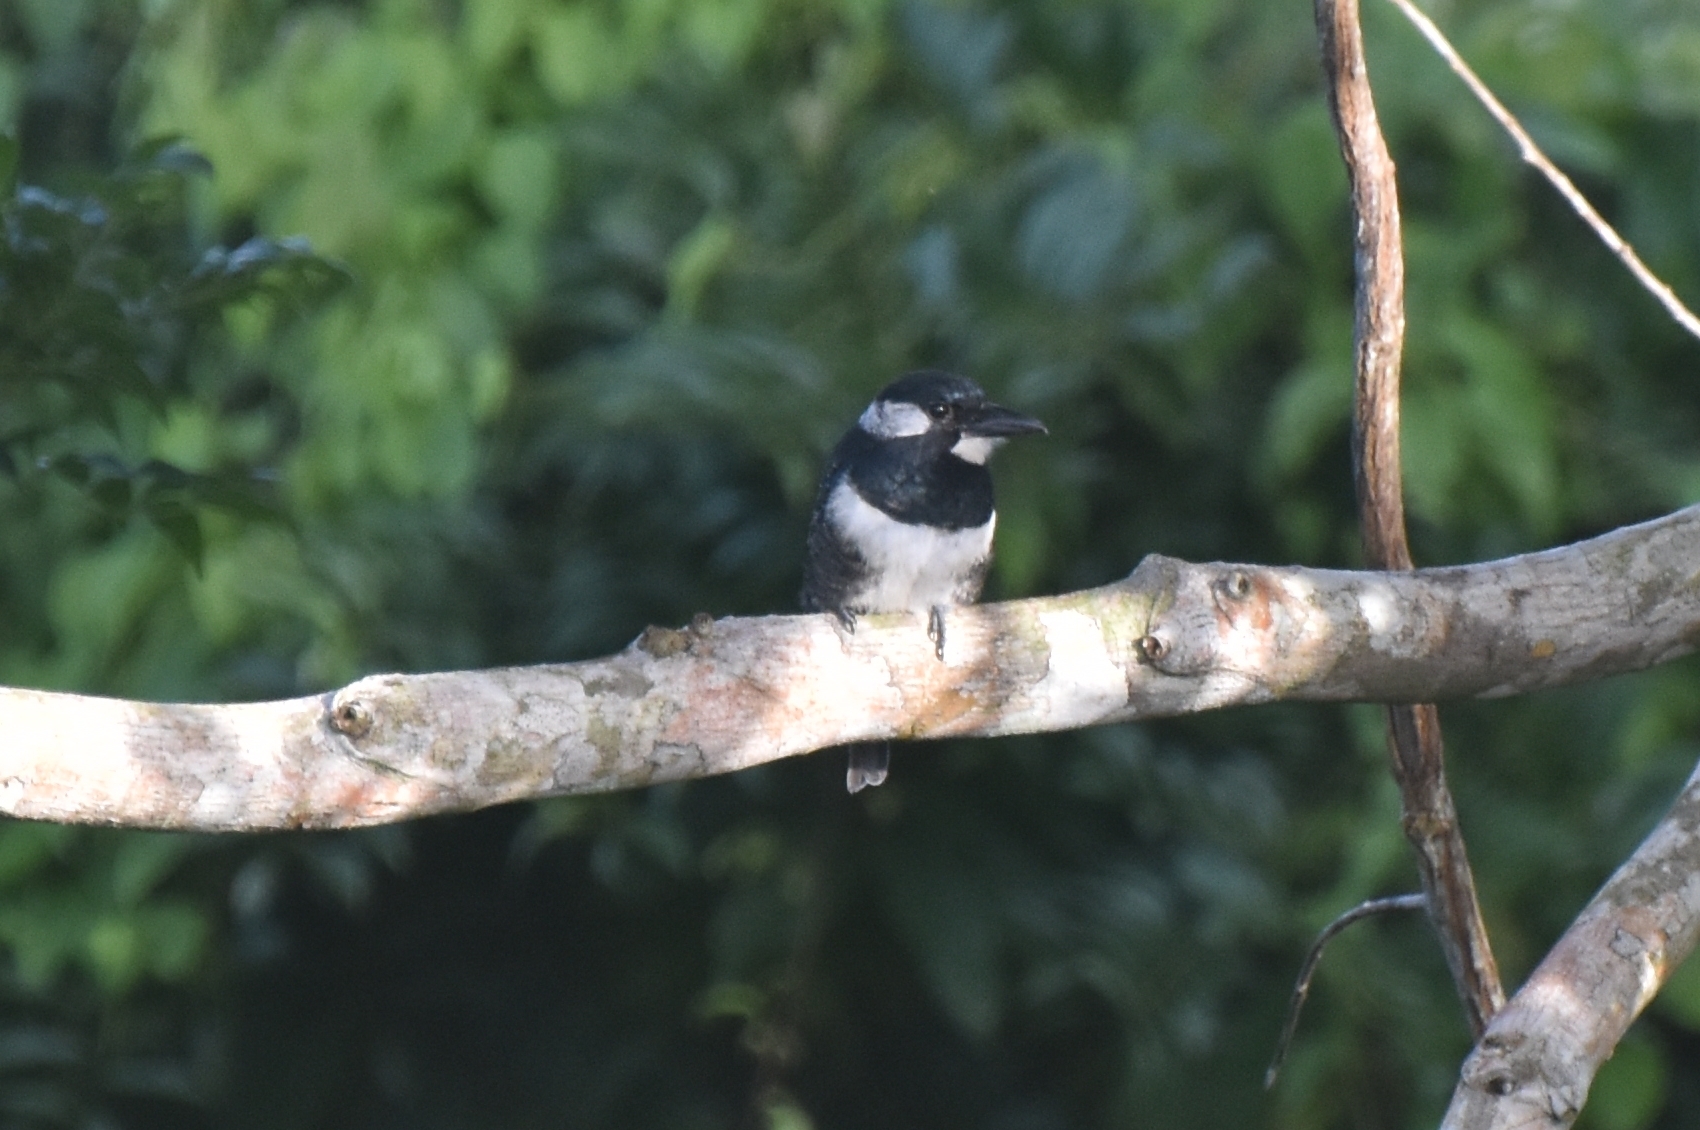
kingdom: Animalia
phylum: Chordata
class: Aves
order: Piciformes
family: Bucconidae
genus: Notharchus
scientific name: Notharchus pectoralis
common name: Black-breasted puffbird
